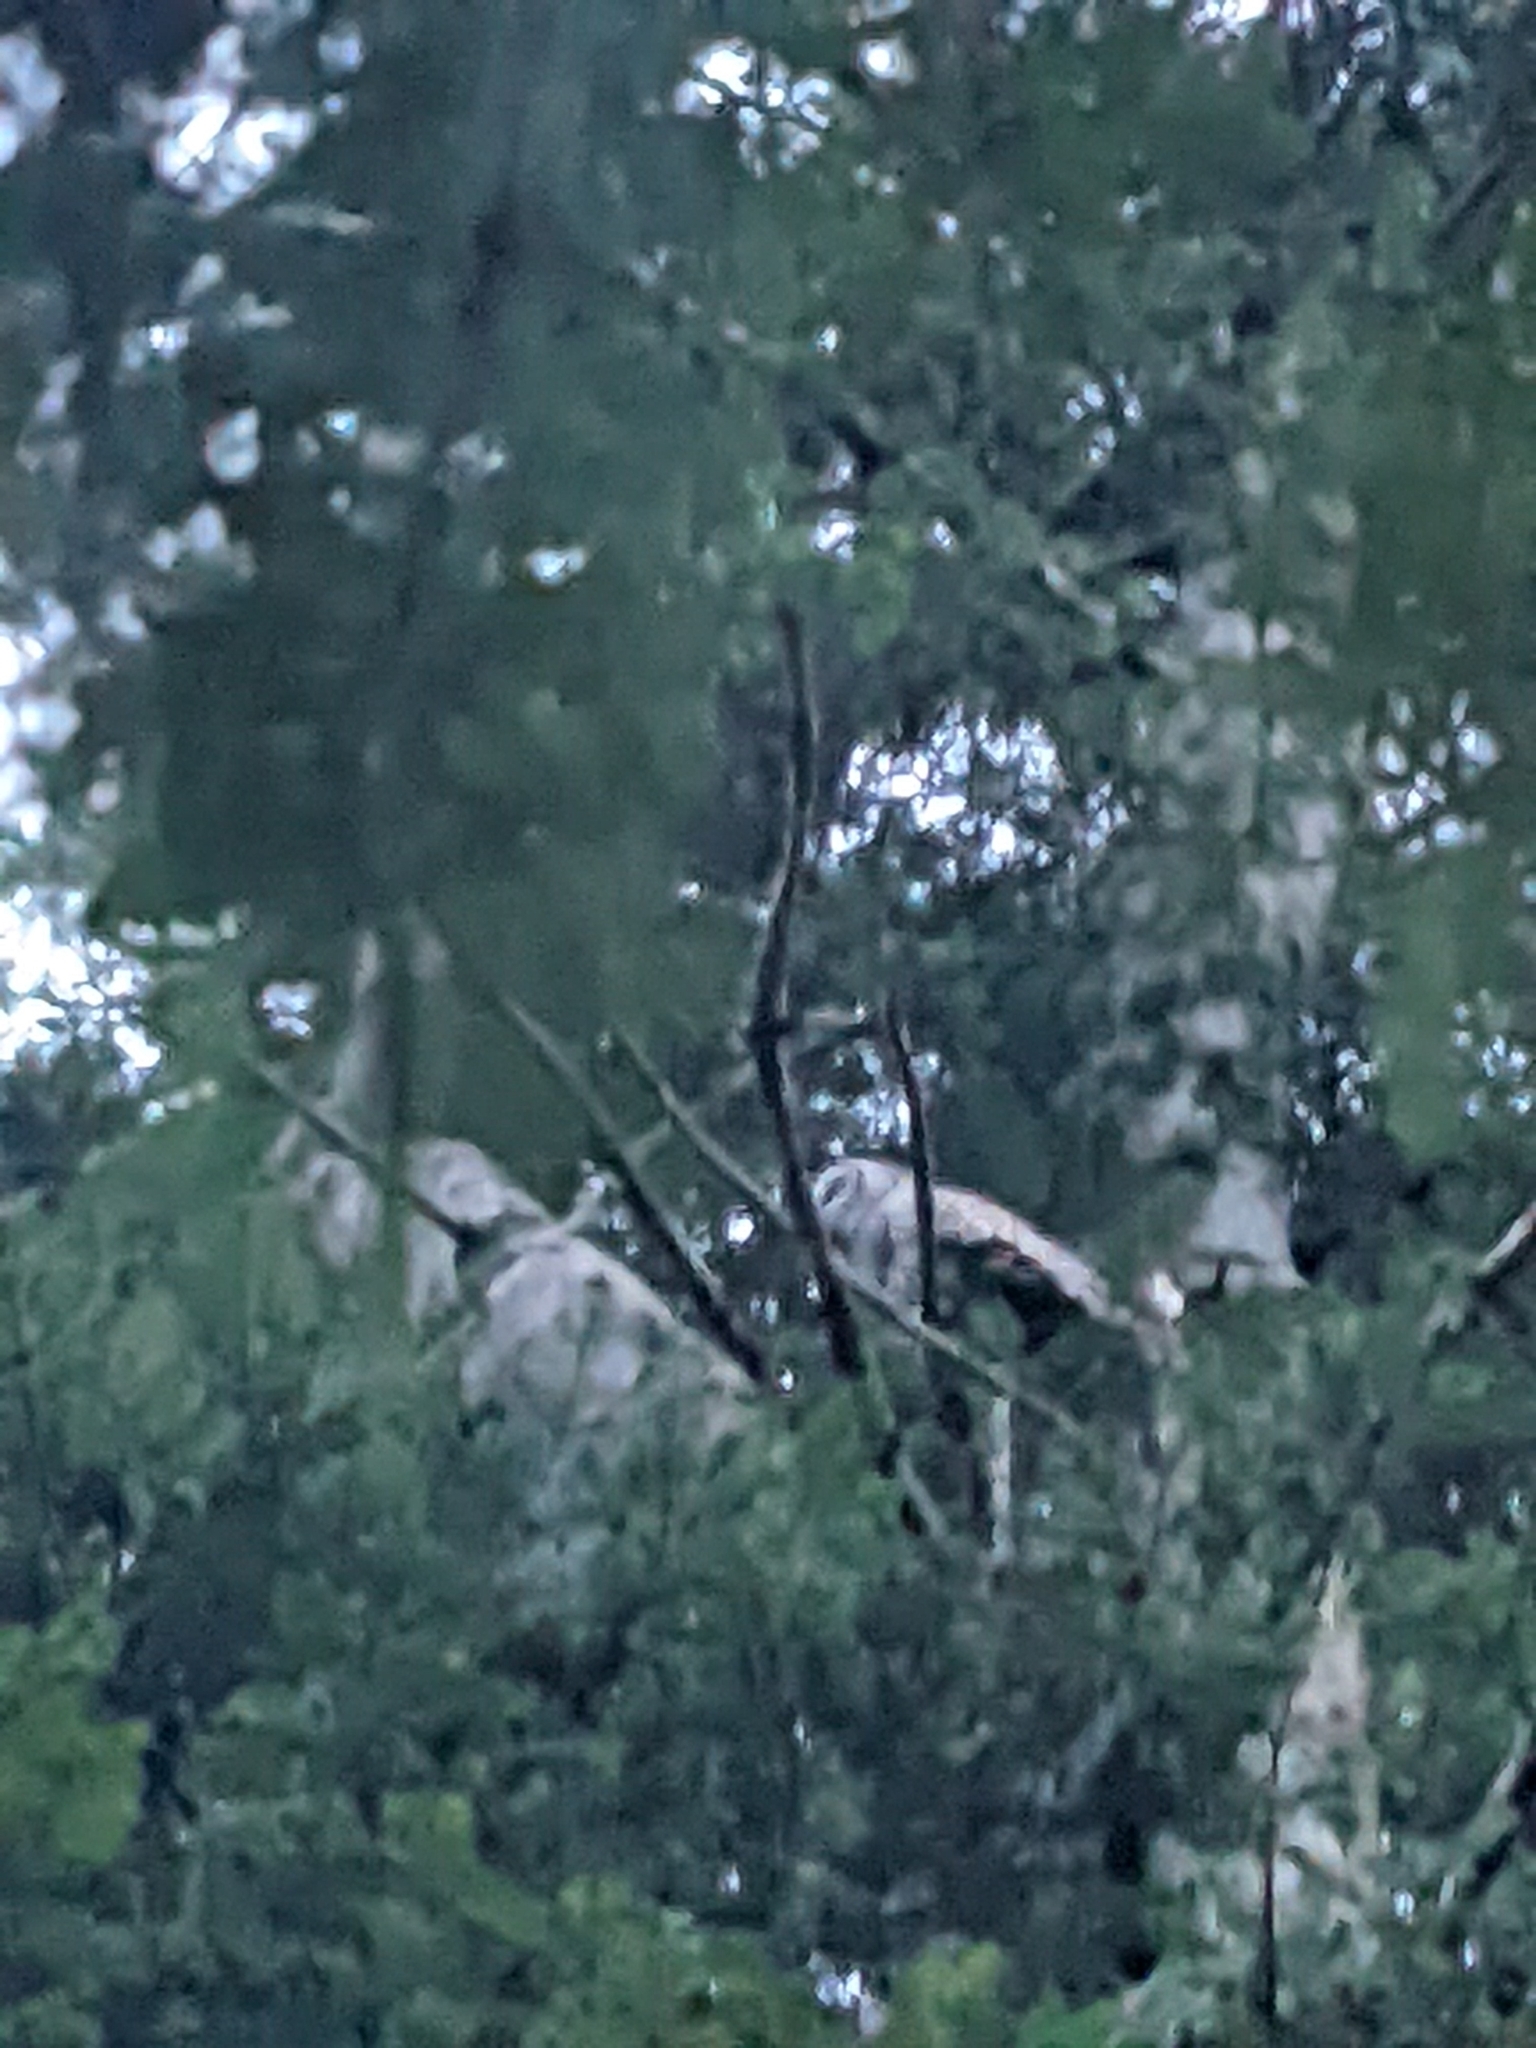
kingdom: Animalia
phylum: Chordata
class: Aves
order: Strigiformes
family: Strigidae
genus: Strix
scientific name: Strix varia
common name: Barred owl
